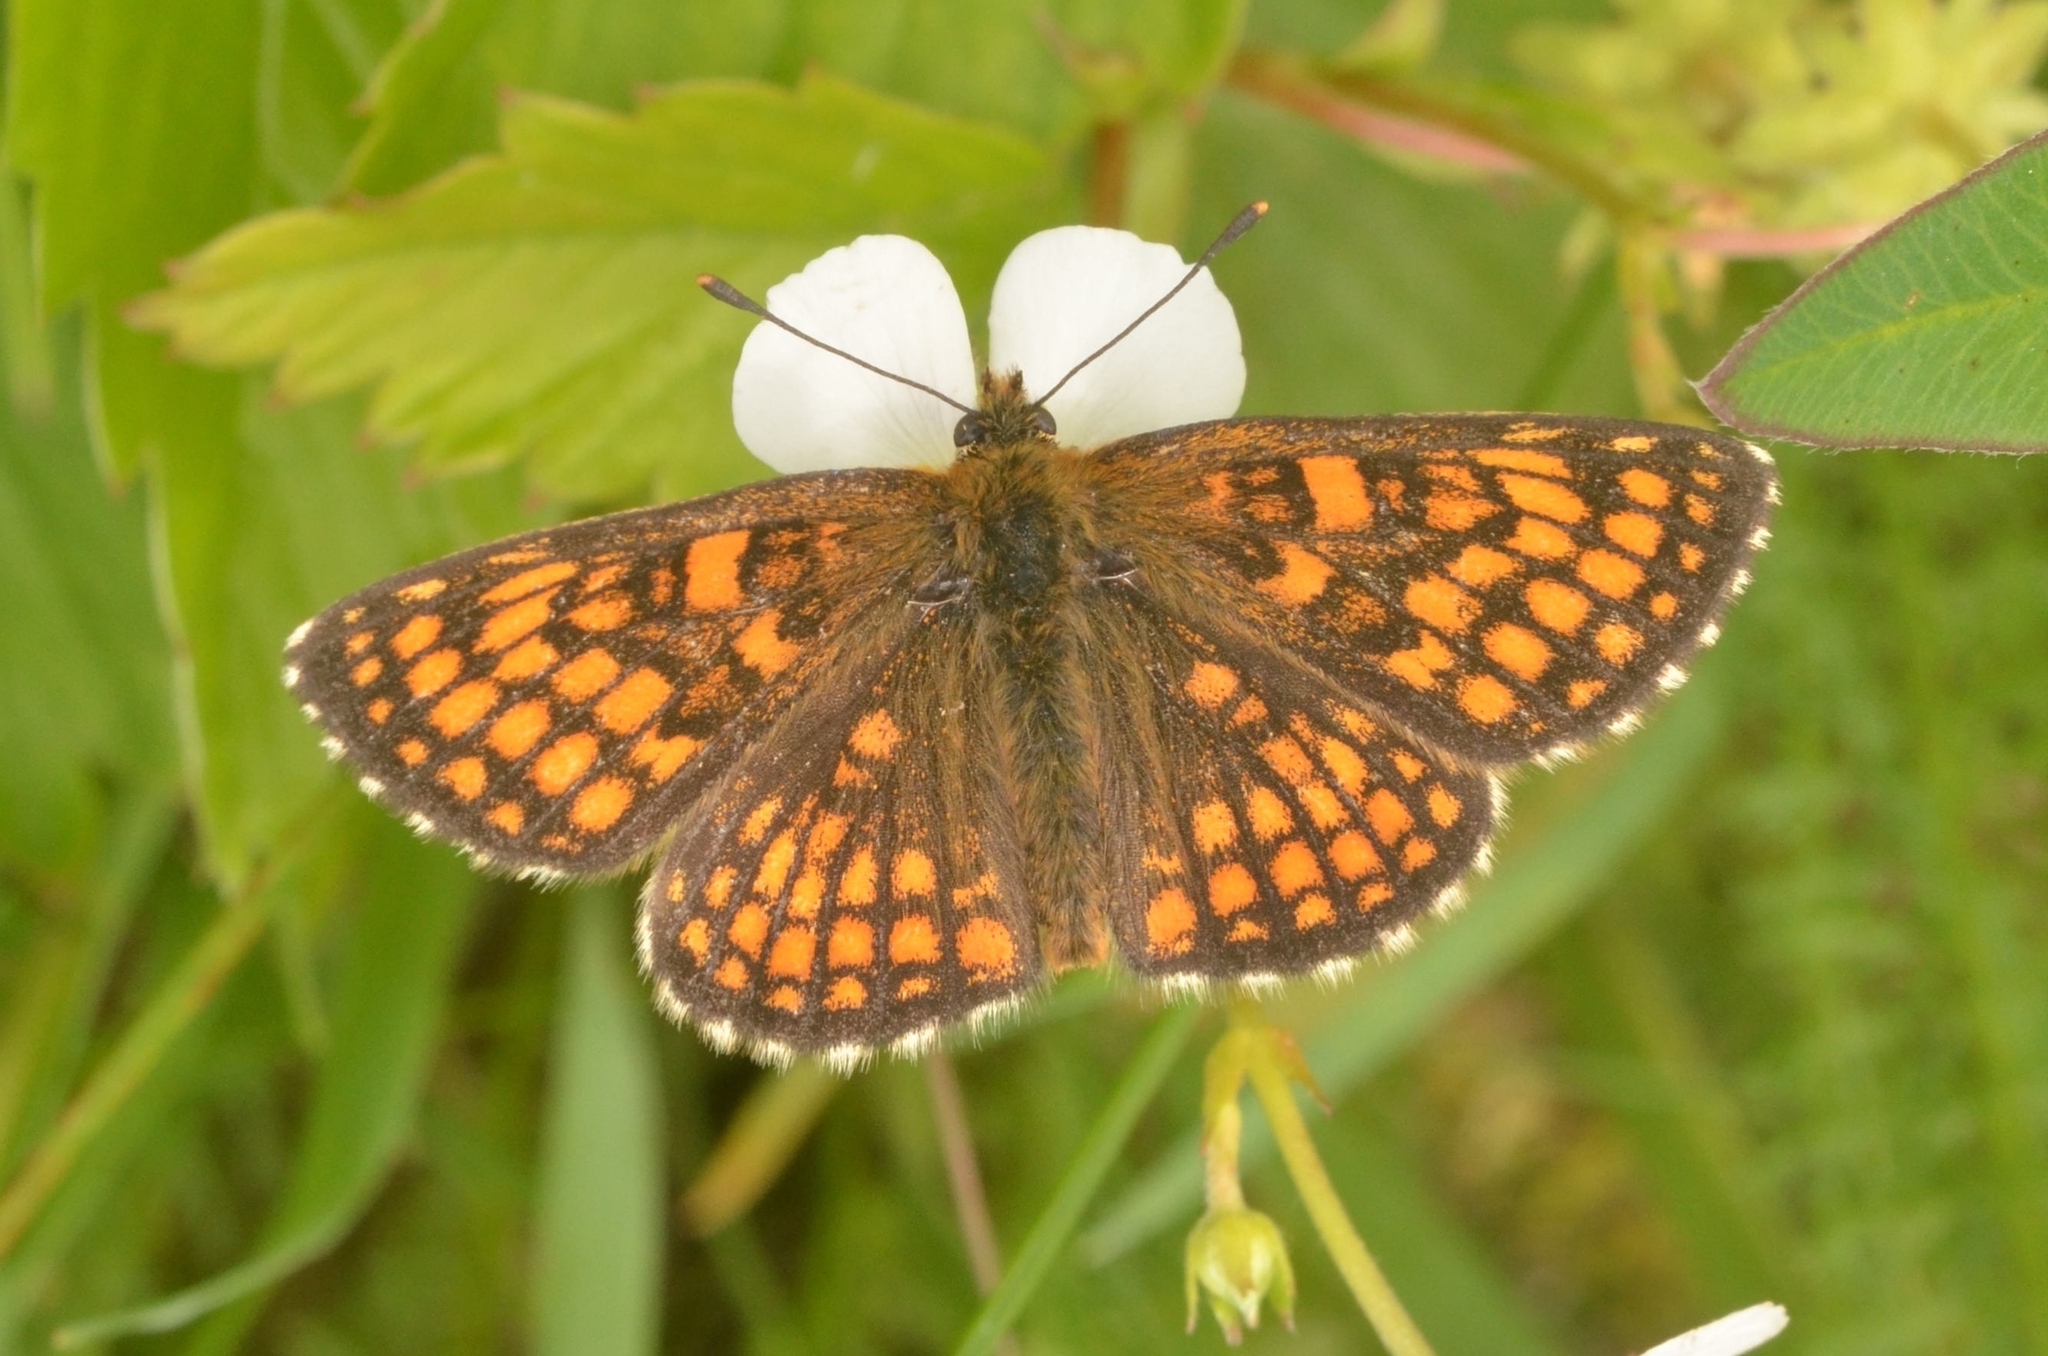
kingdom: Animalia
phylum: Arthropoda
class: Insecta
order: Lepidoptera
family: Nymphalidae
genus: Melitaea
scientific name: Melitaea athalia
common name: Heath fritillary
